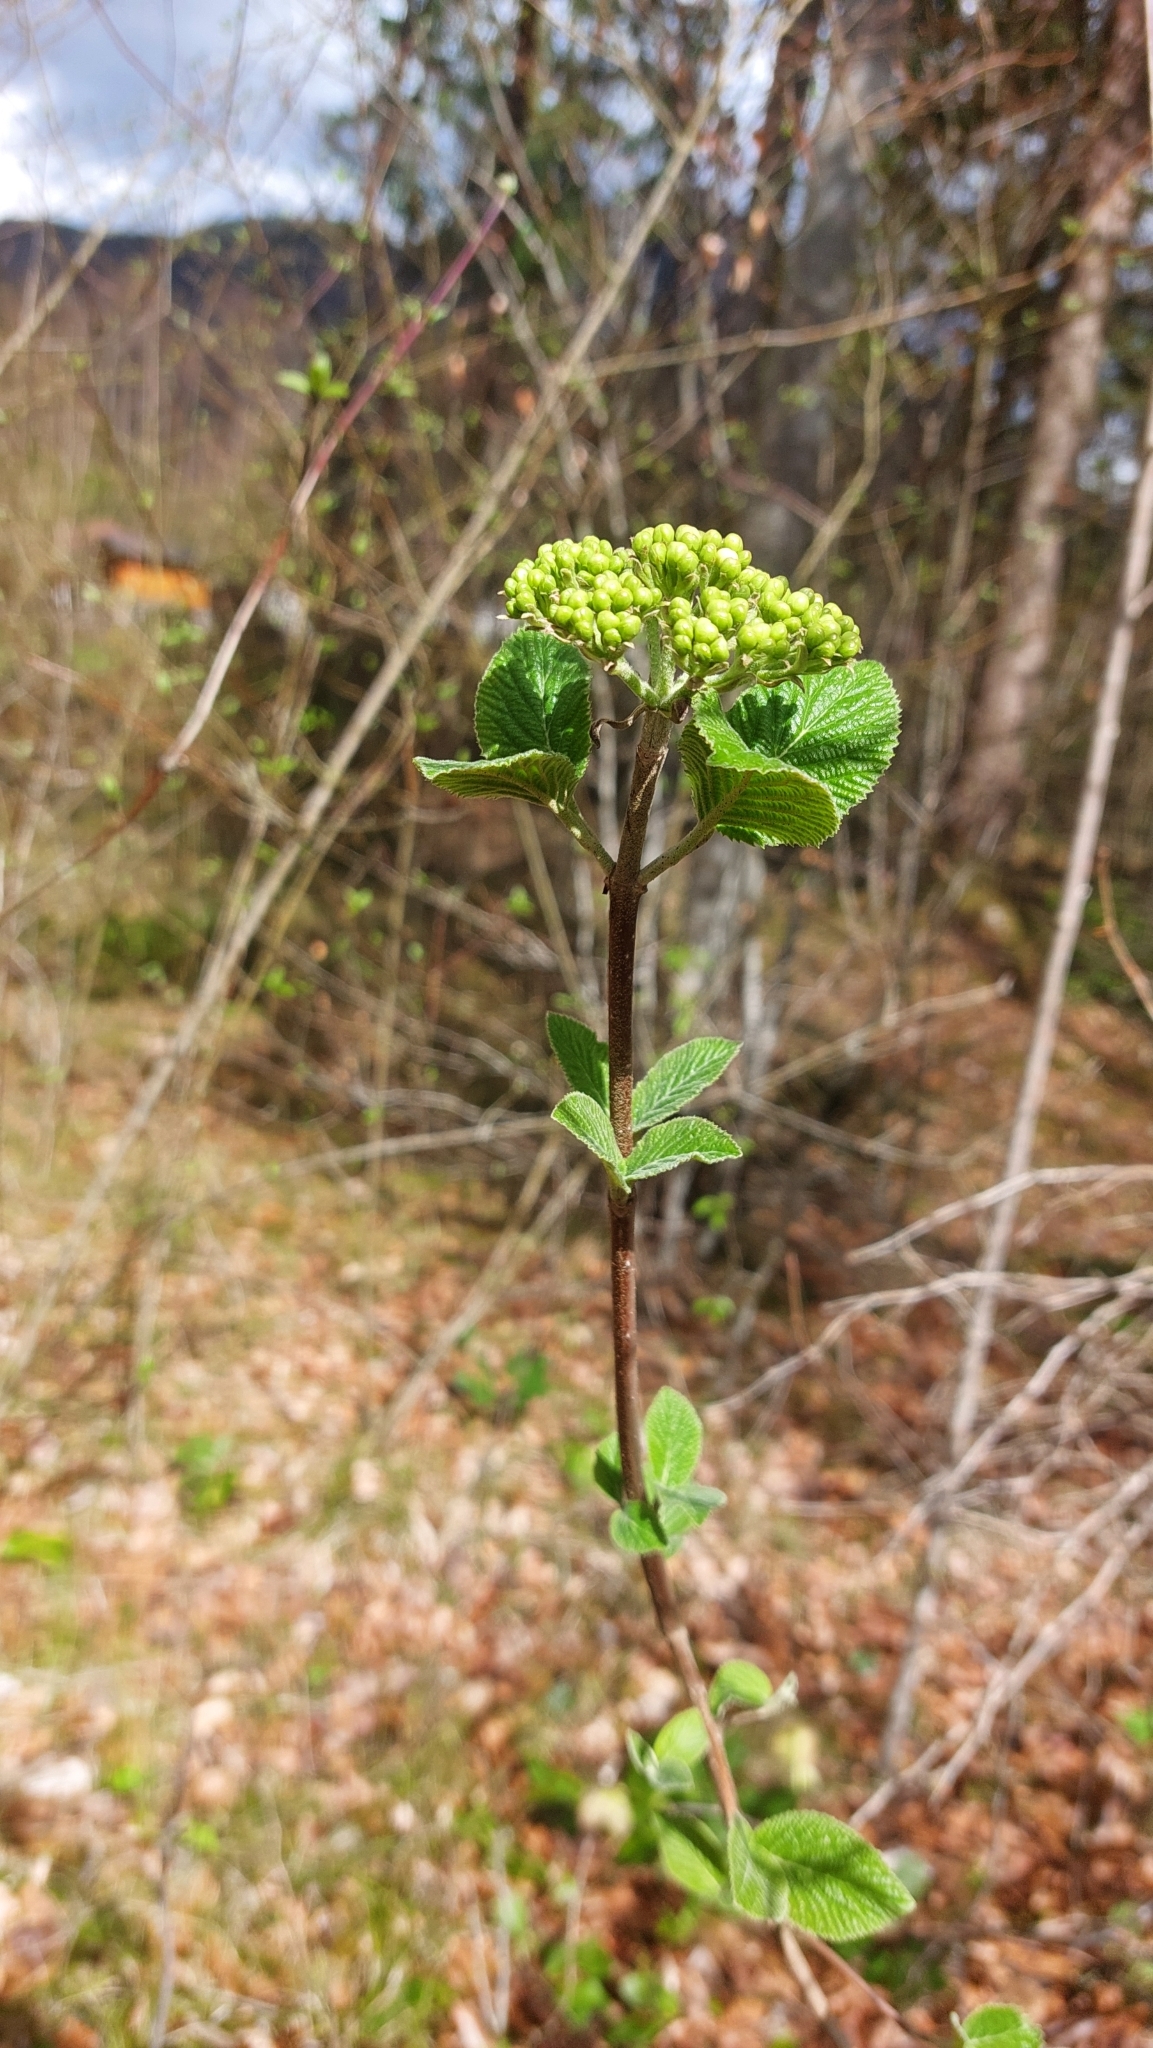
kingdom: Plantae
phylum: Tracheophyta
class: Magnoliopsida
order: Dipsacales
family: Viburnaceae
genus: Viburnum
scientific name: Viburnum lantana
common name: Wayfaring tree
